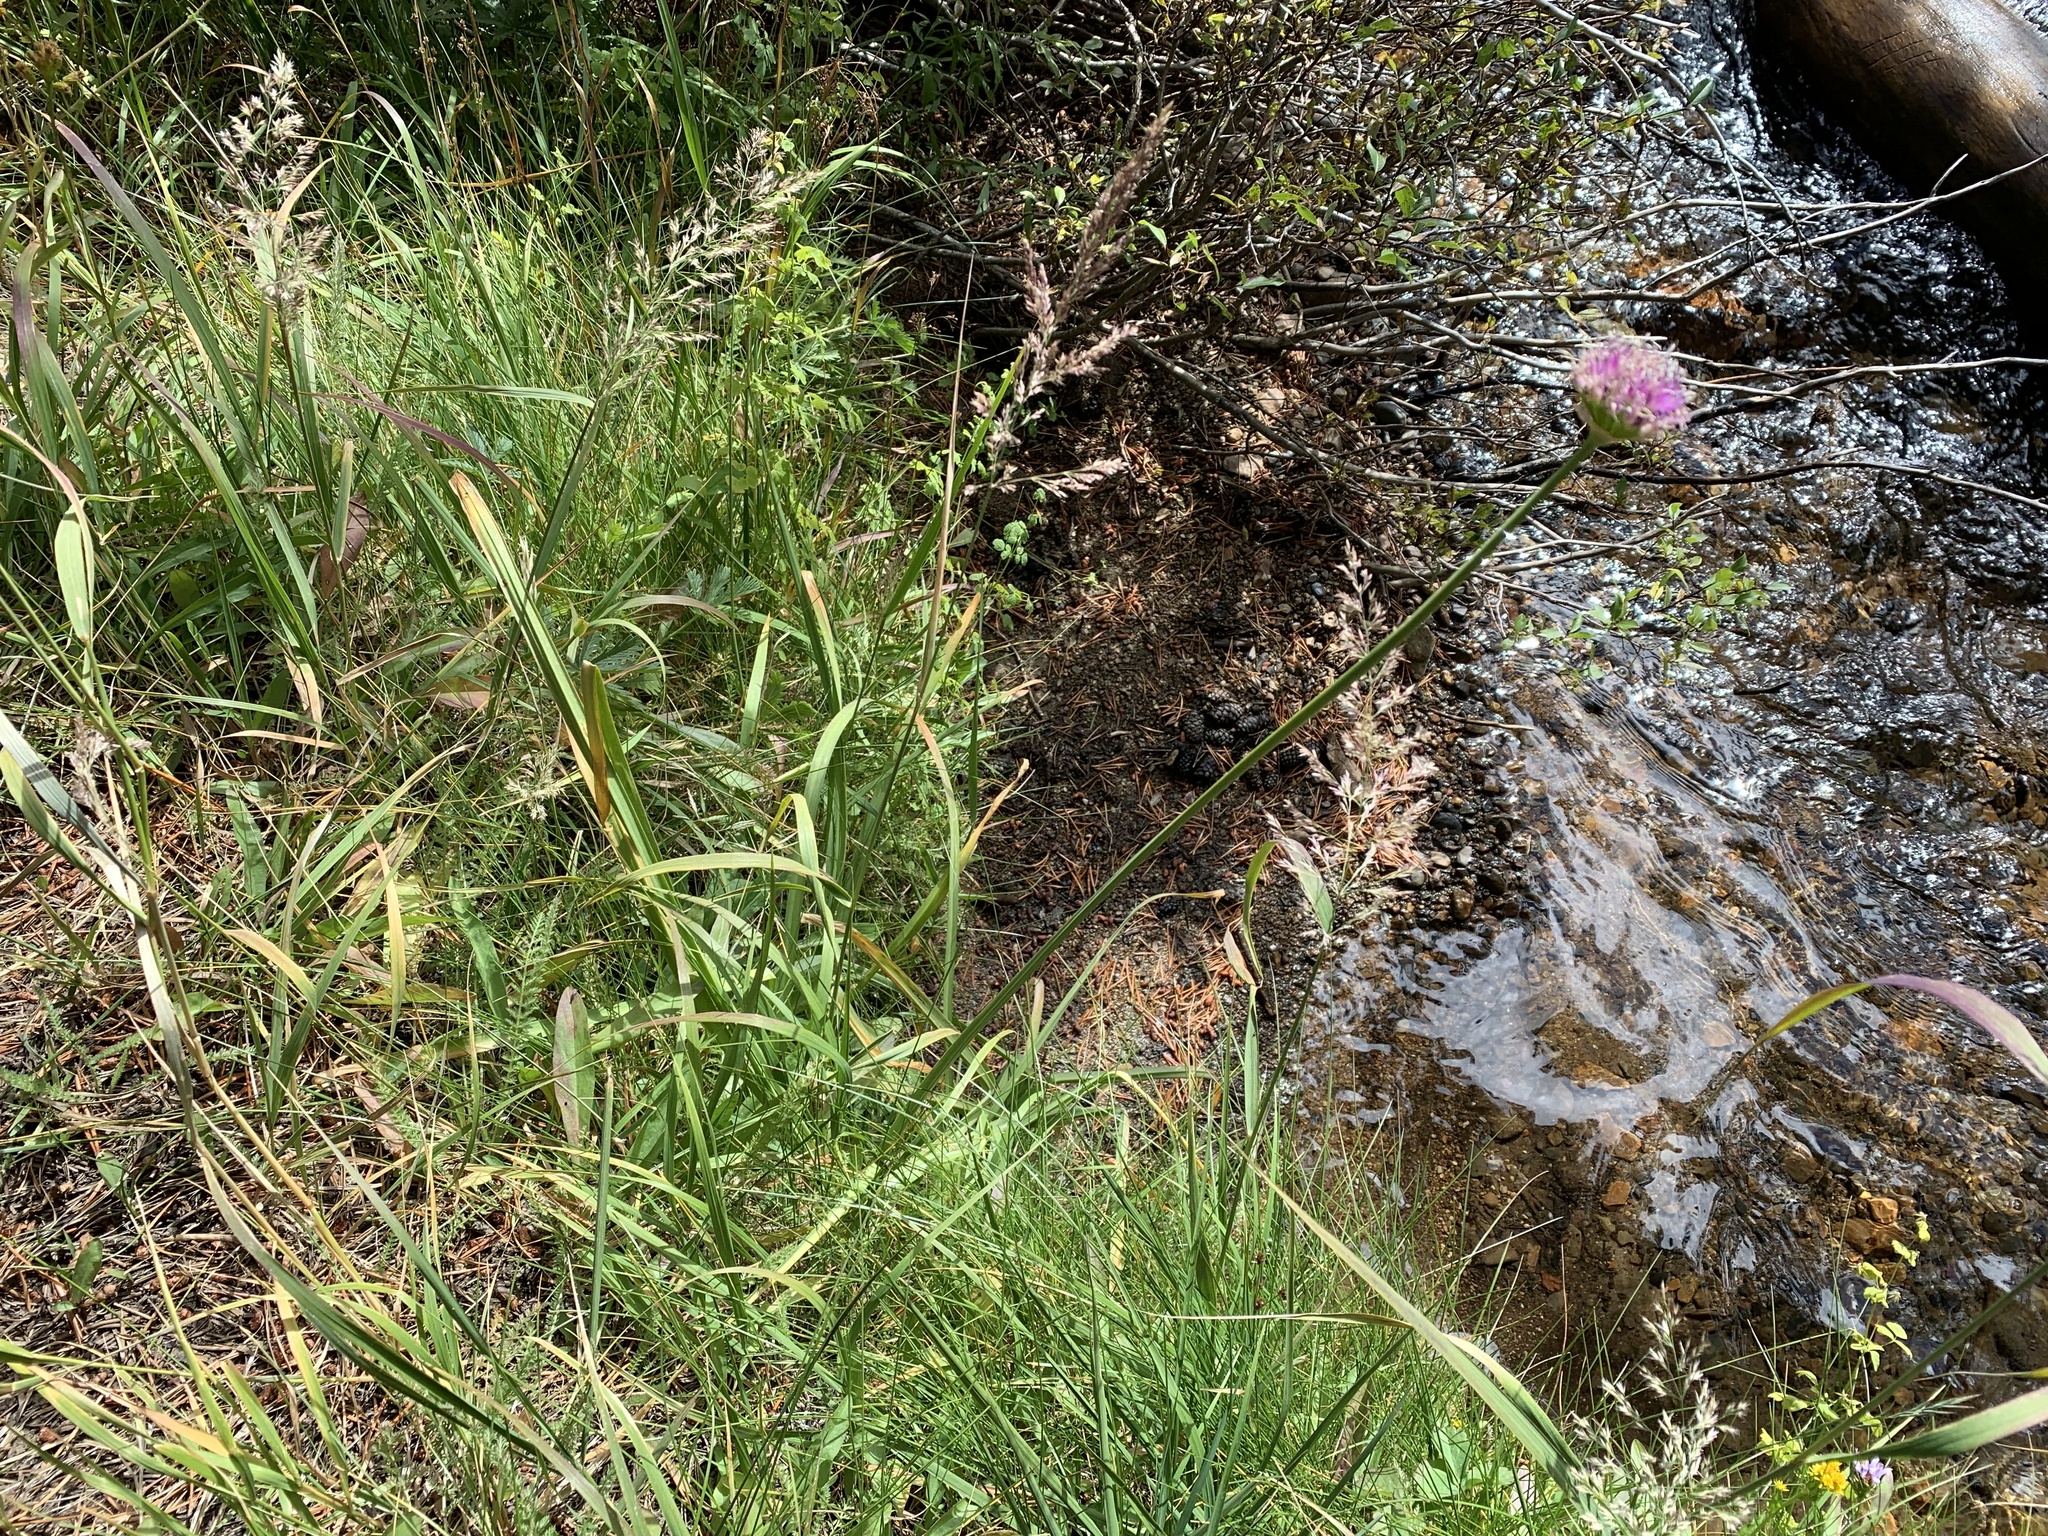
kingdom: Plantae
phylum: Tracheophyta
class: Liliopsida
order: Asparagales
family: Amaryllidaceae
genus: Allium
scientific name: Allium validum
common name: Pacific mountain onion
